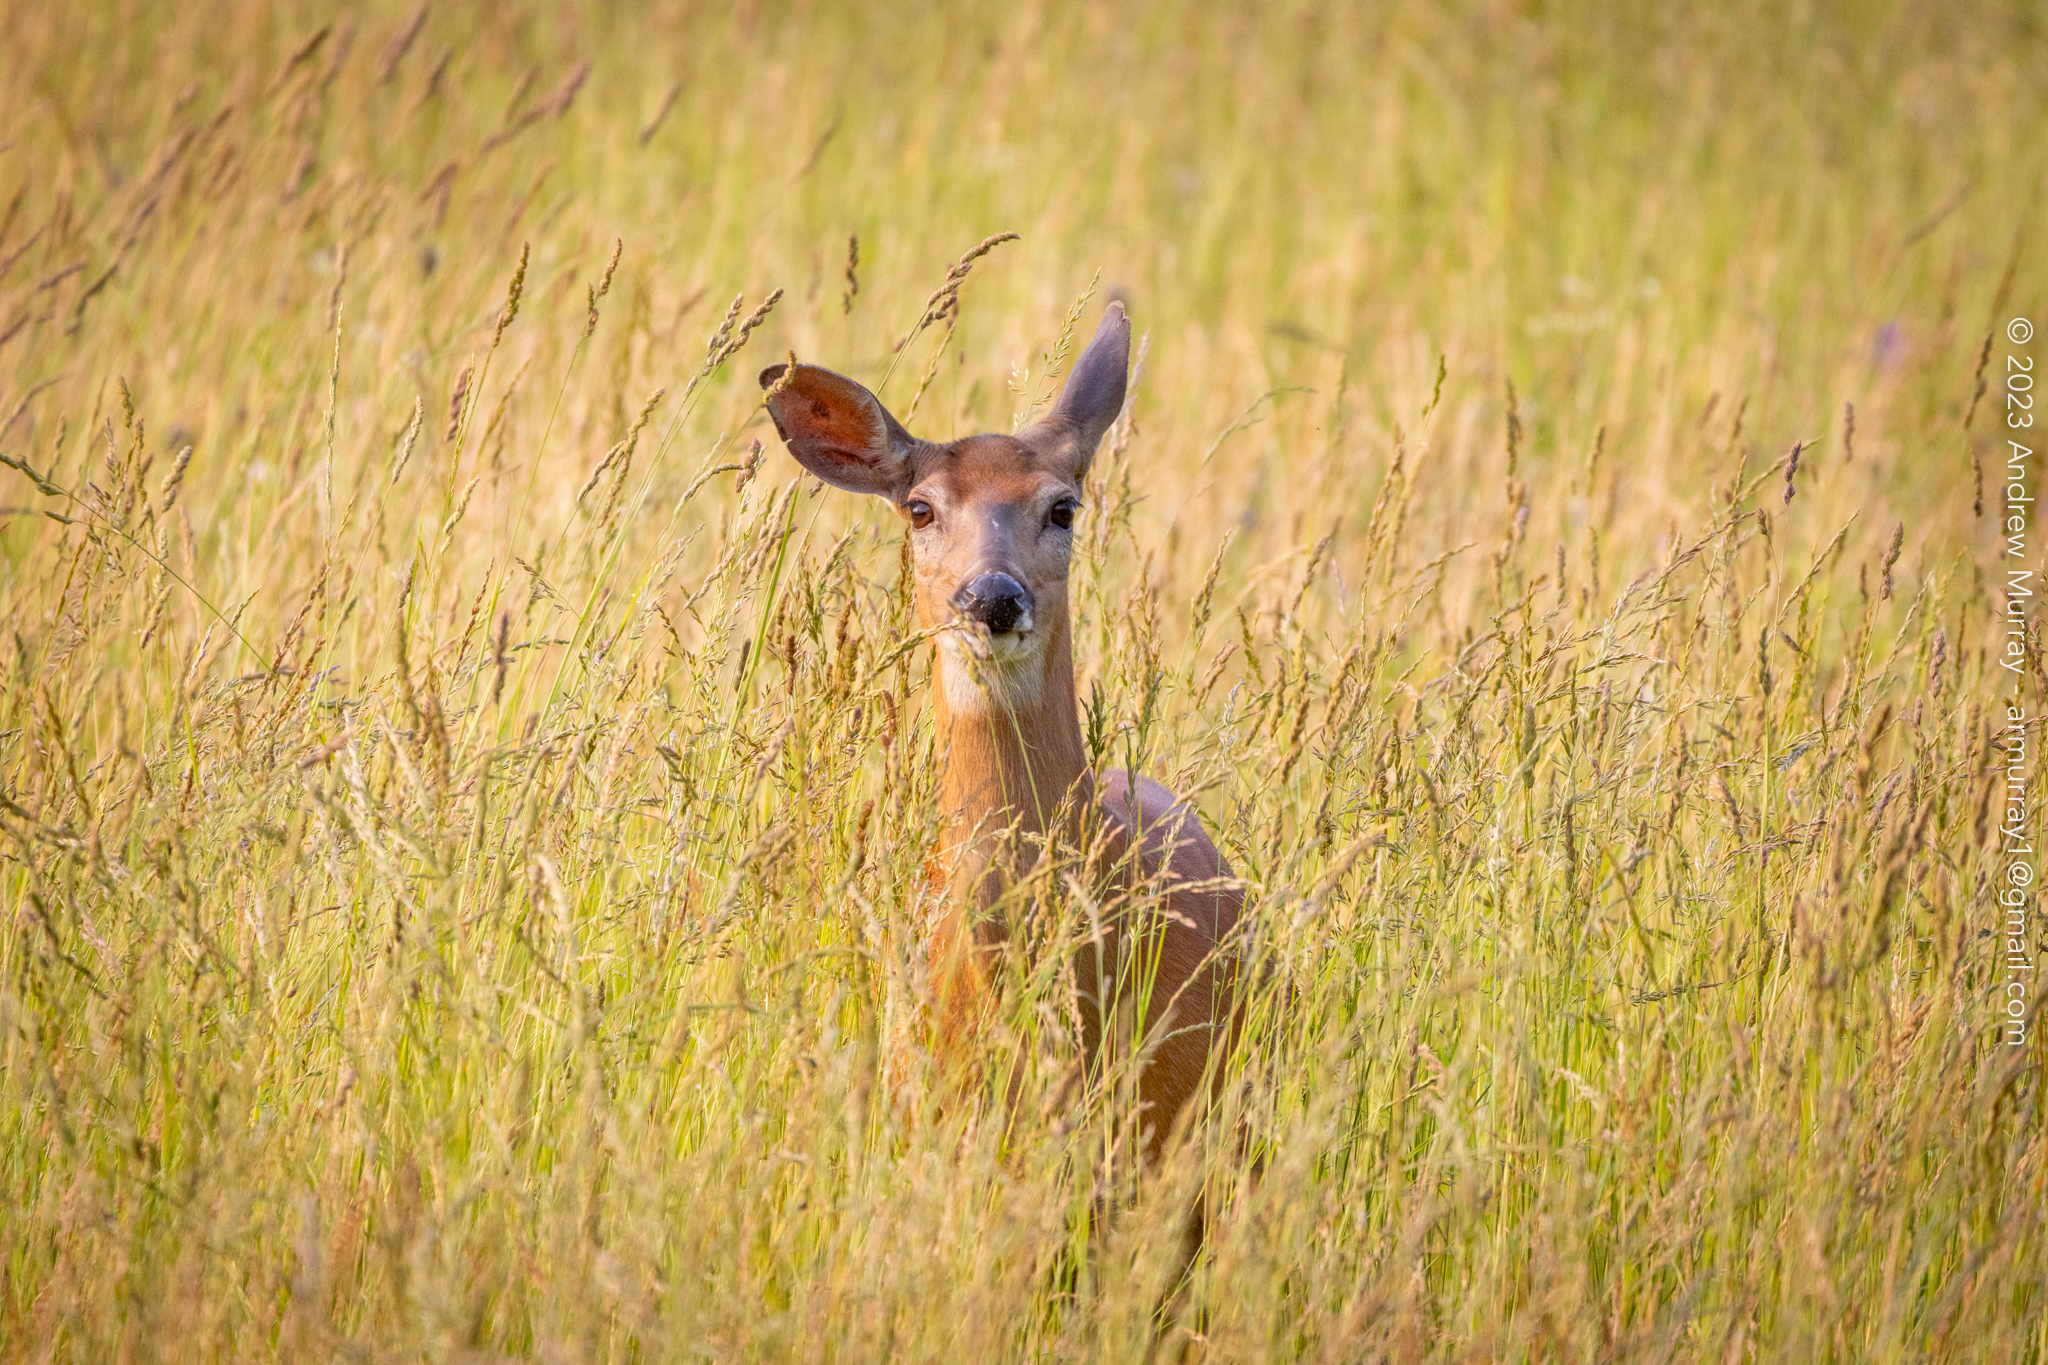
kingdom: Animalia
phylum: Chordata
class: Mammalia
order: Artiodactyla
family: Cervidae
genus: Odocoileus
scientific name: Odocoileus virginianus
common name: White-tailed deer
